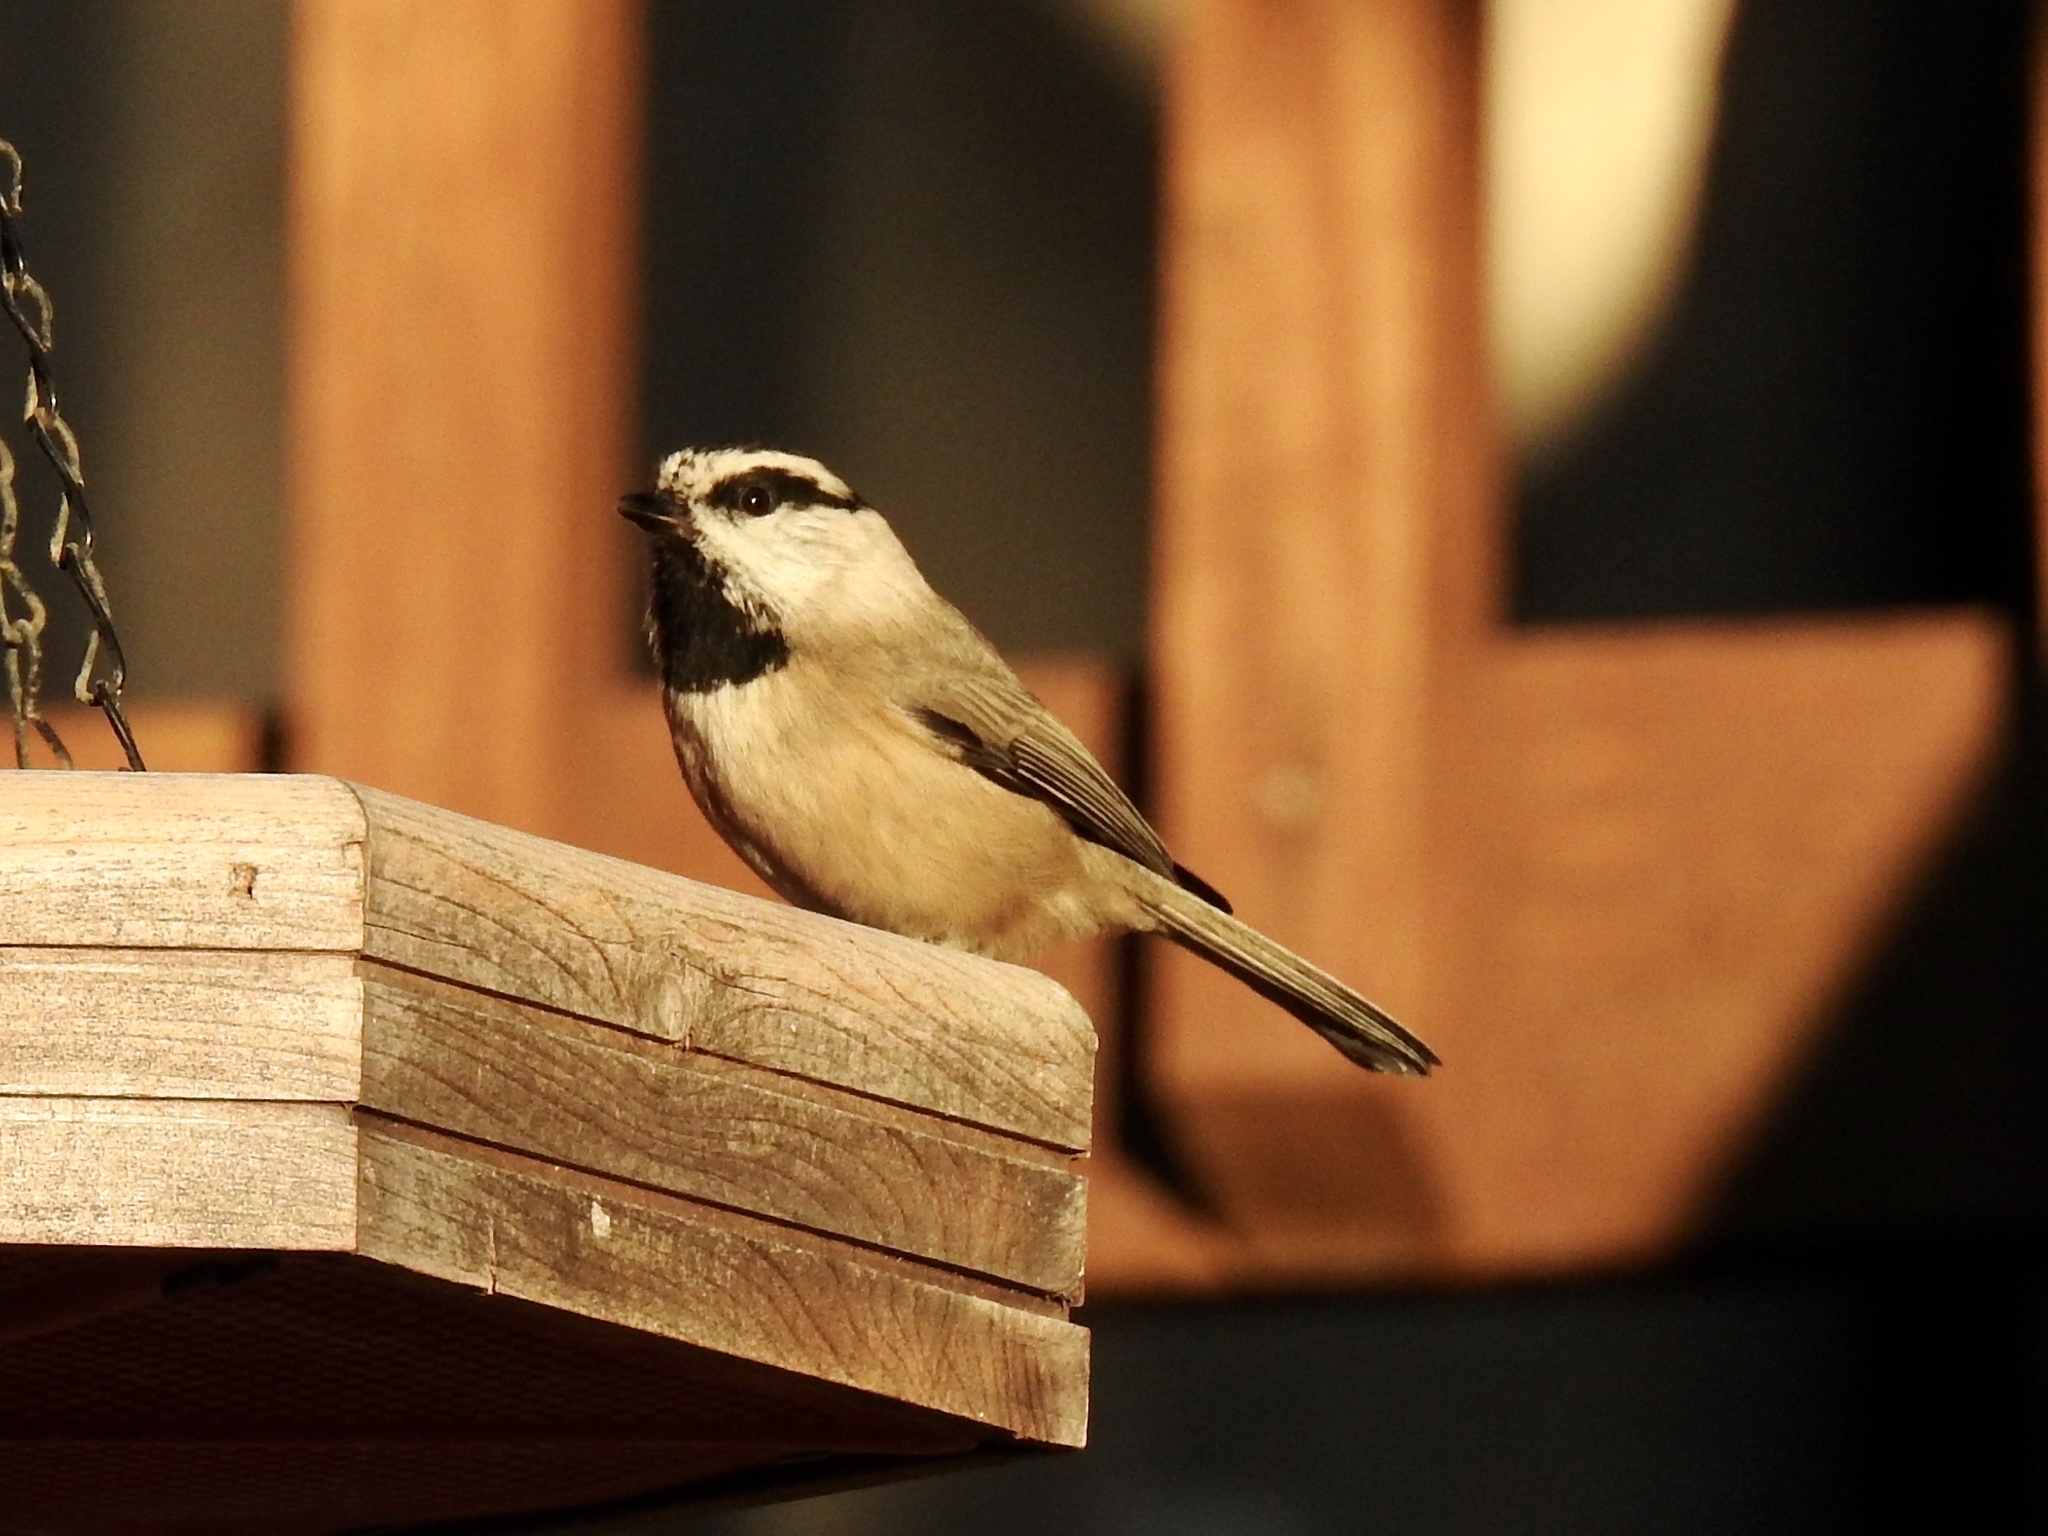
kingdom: Animalia
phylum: Chordata
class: Aves
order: Passeriformes
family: Paridae
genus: Poecile
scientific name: Poecile gambeli
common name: Mountain chickadee
